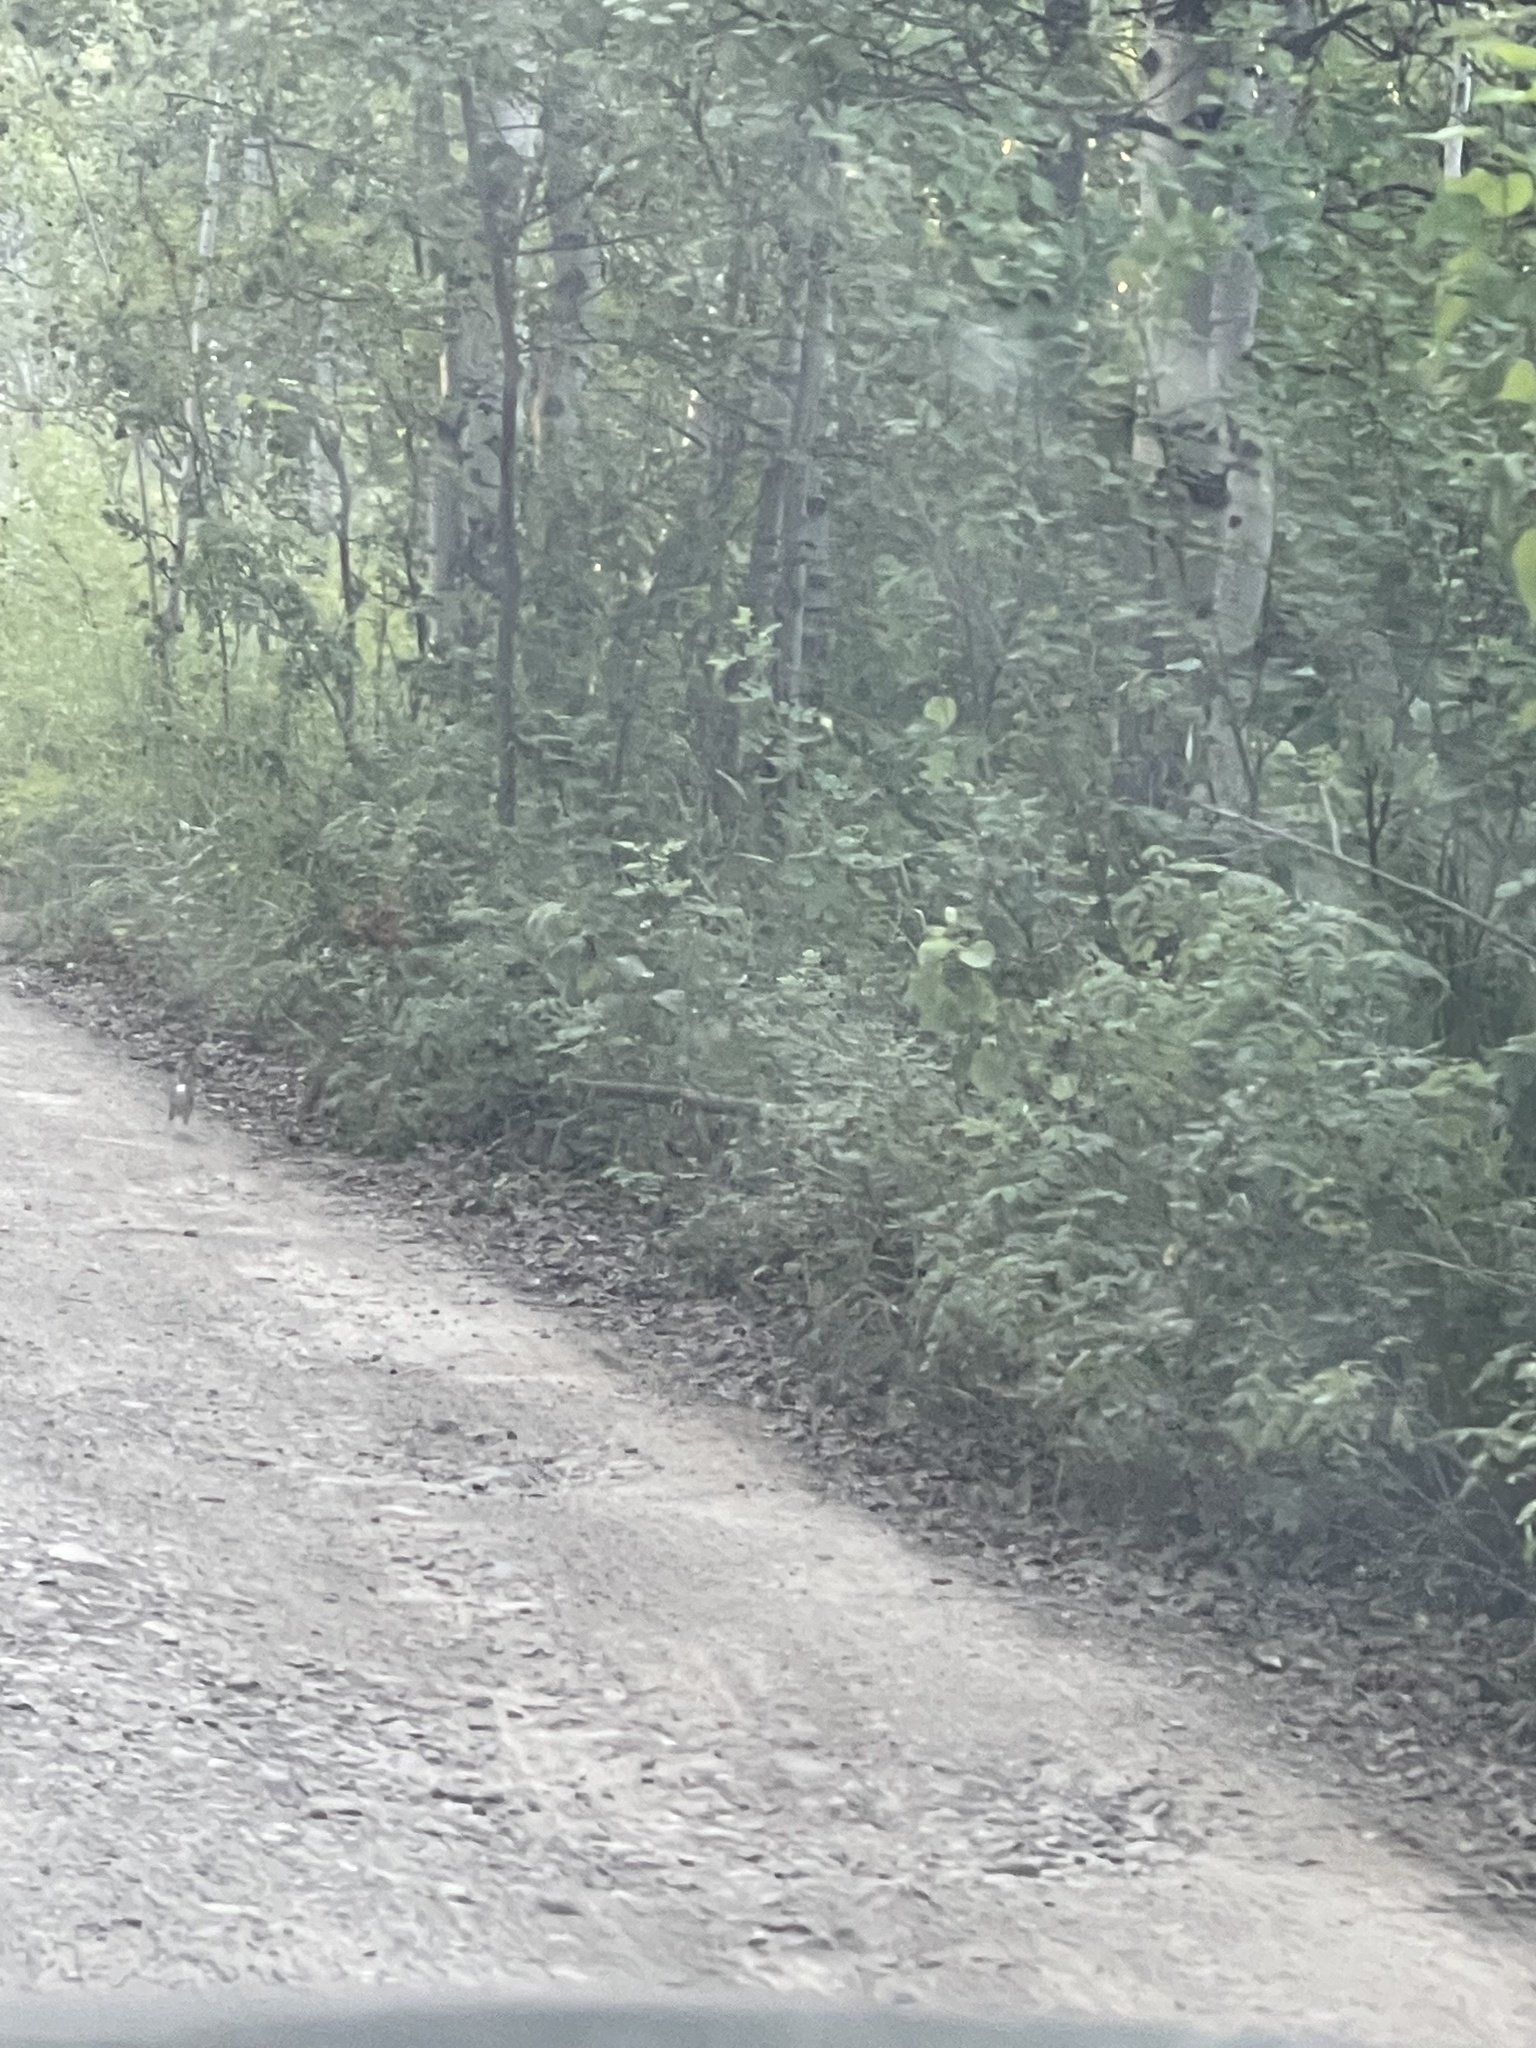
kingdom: Animalia
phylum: Chordata
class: Mammalia
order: Lagomorpha
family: Leporidae
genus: Sylvilagus
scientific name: Sylvilagus nuttallii
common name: Mountain cottontail
